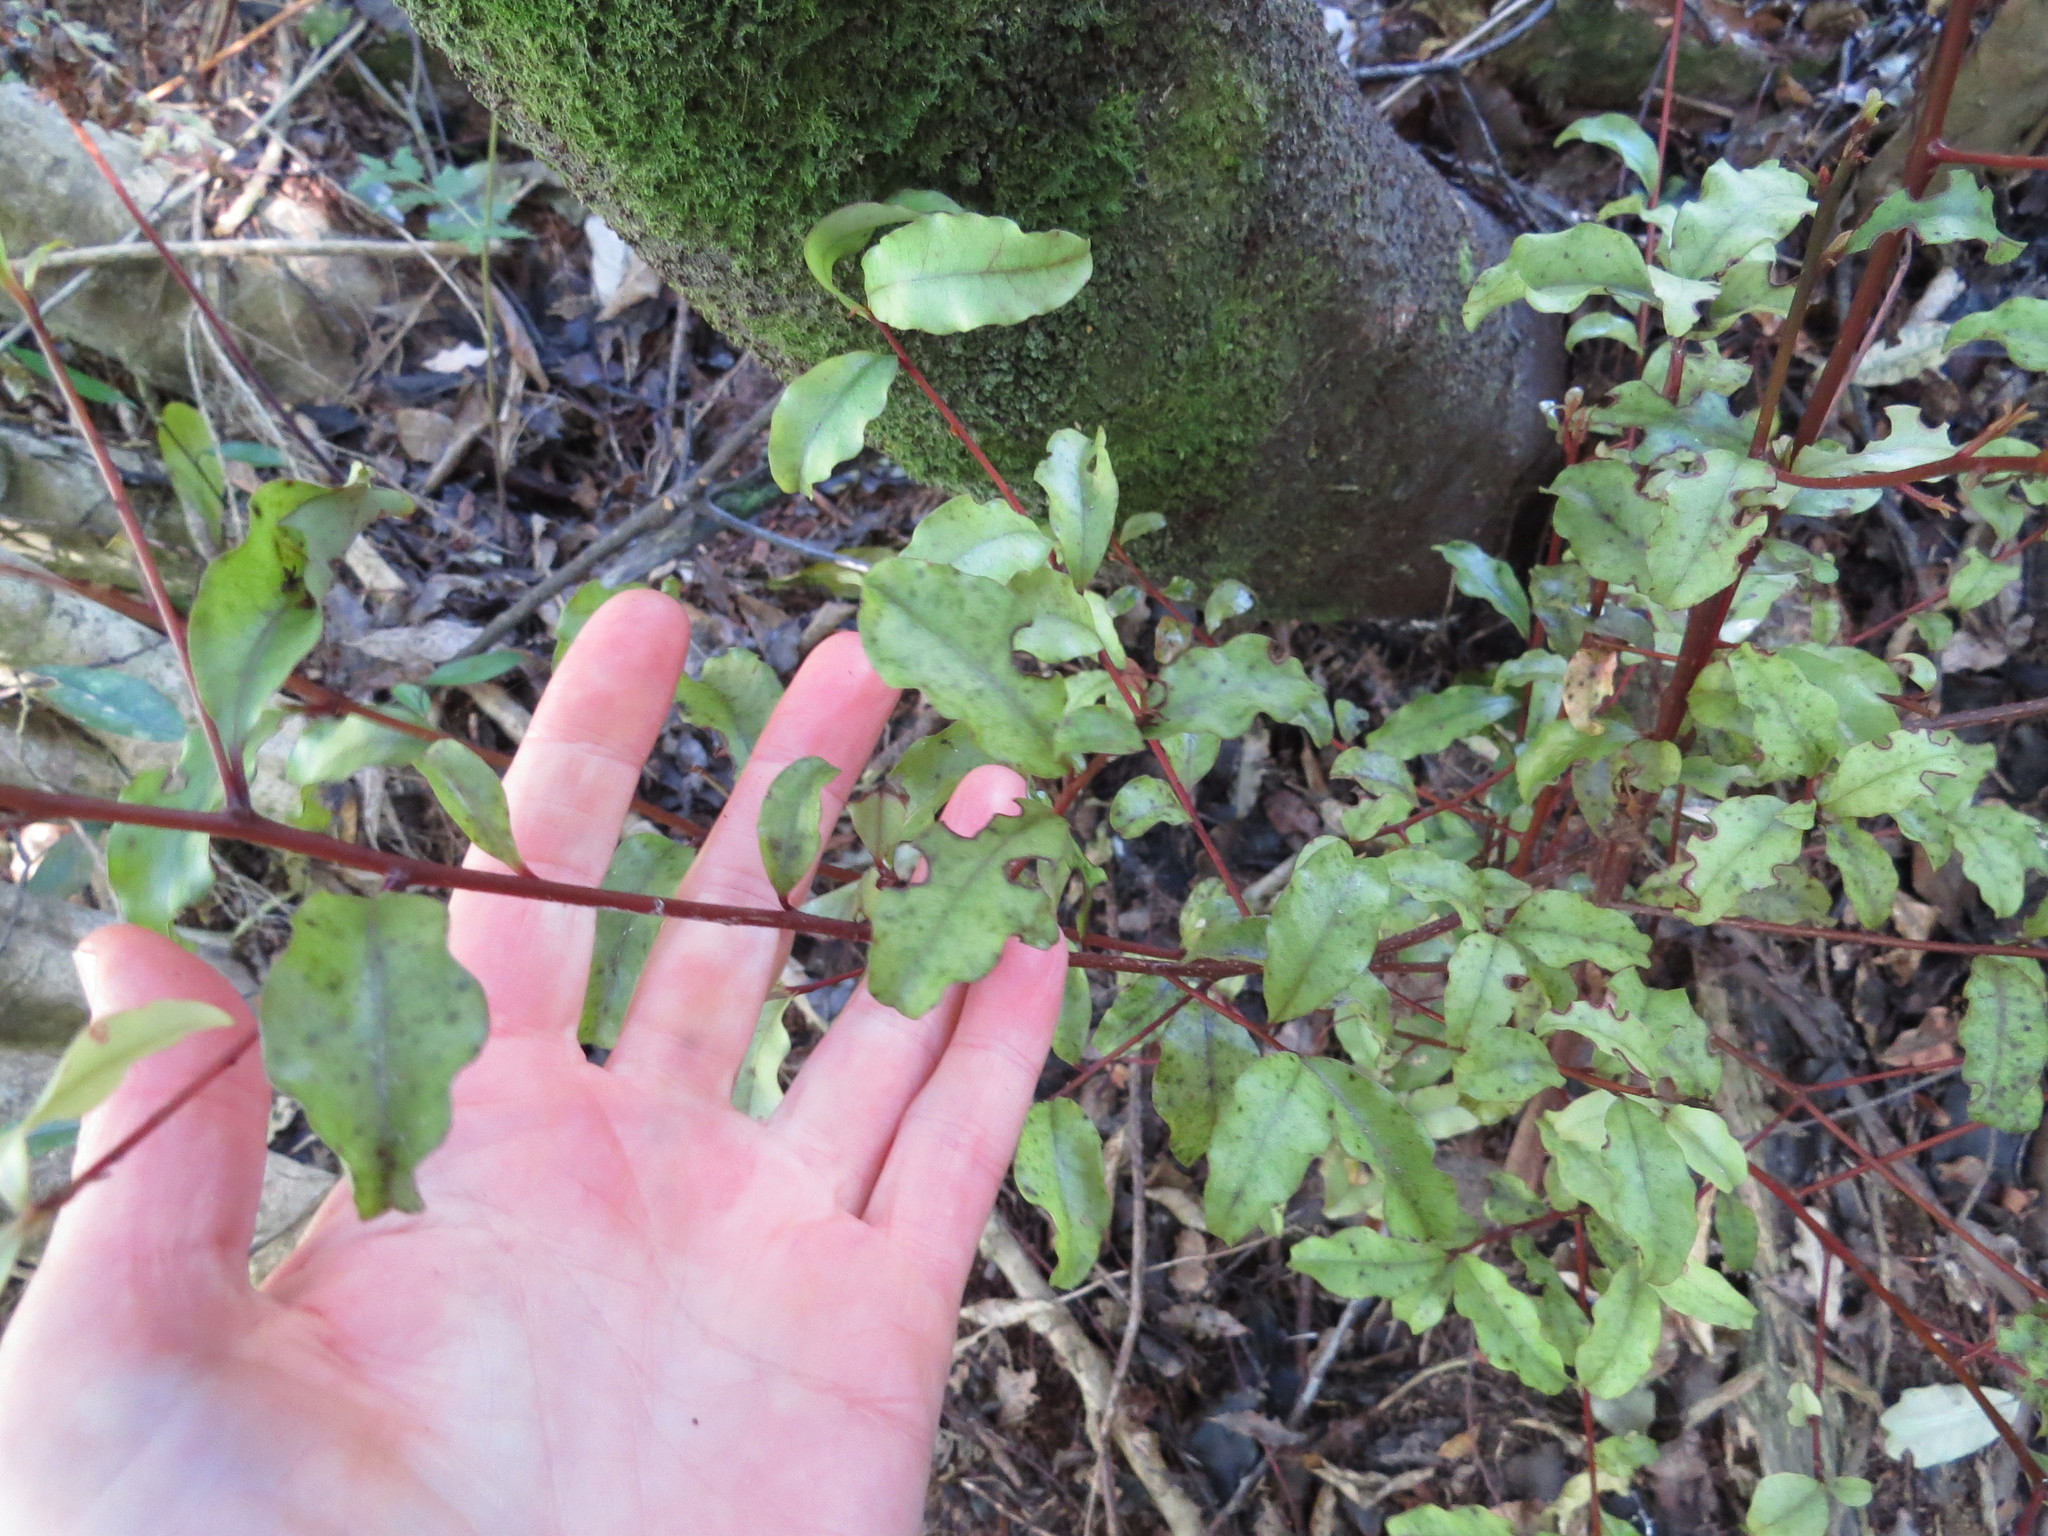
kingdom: Plantae
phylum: Tracheophyta
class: Magnoliopsida
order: Ericales
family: Primulaceae
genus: Myrsine
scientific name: Myrsine australis
